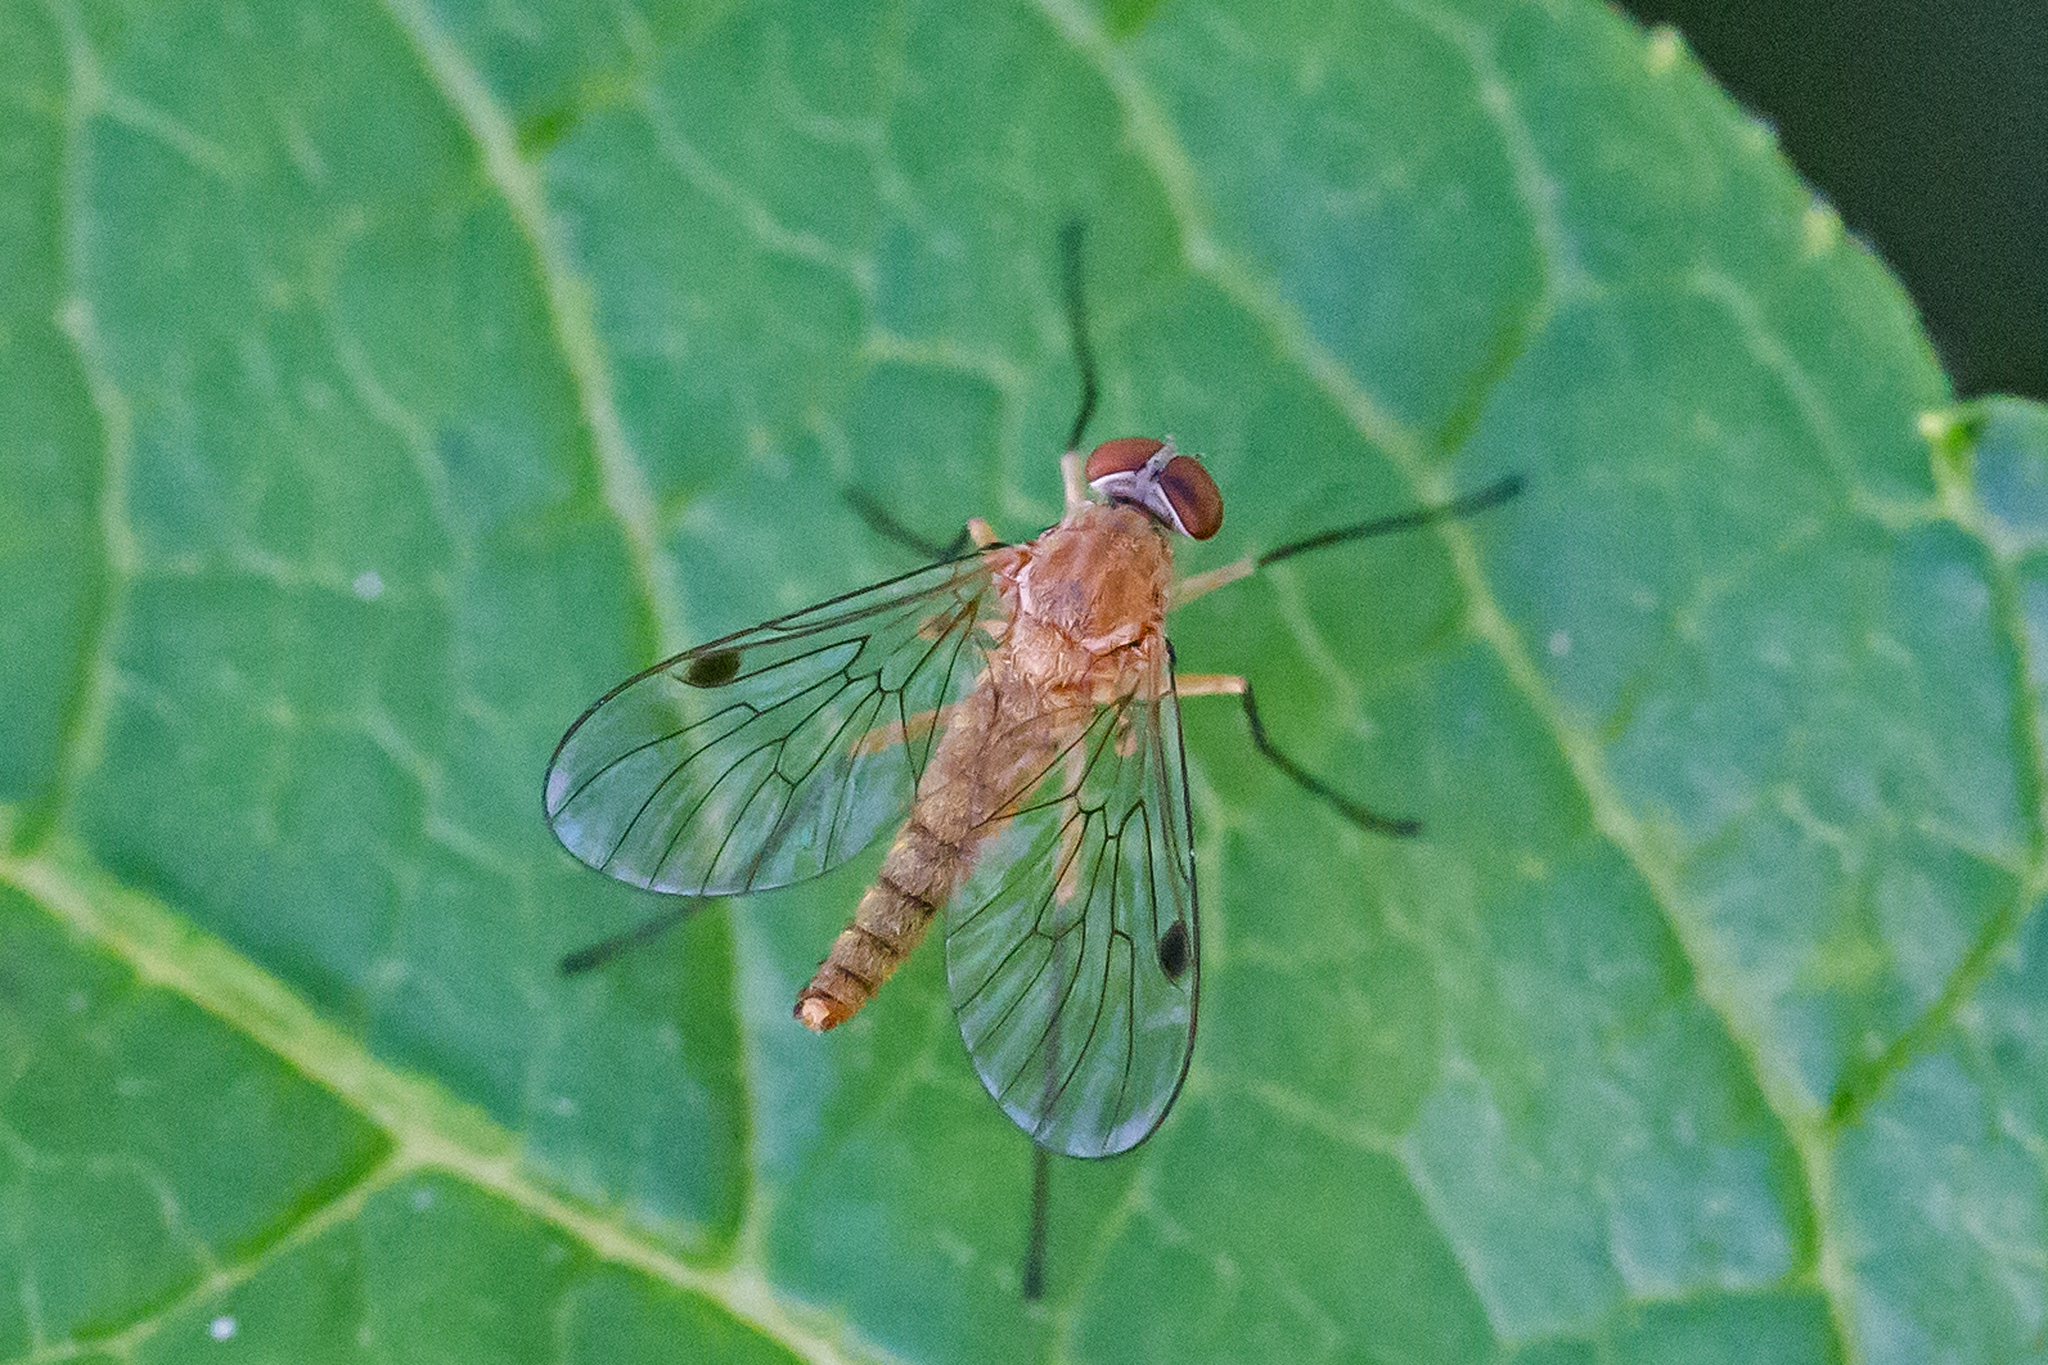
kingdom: Animalia
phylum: Arthropoda
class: Insecta
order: Diptera
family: Rhagionidae
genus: Chrysopilus
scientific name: Chrysopilus rotundipennis
